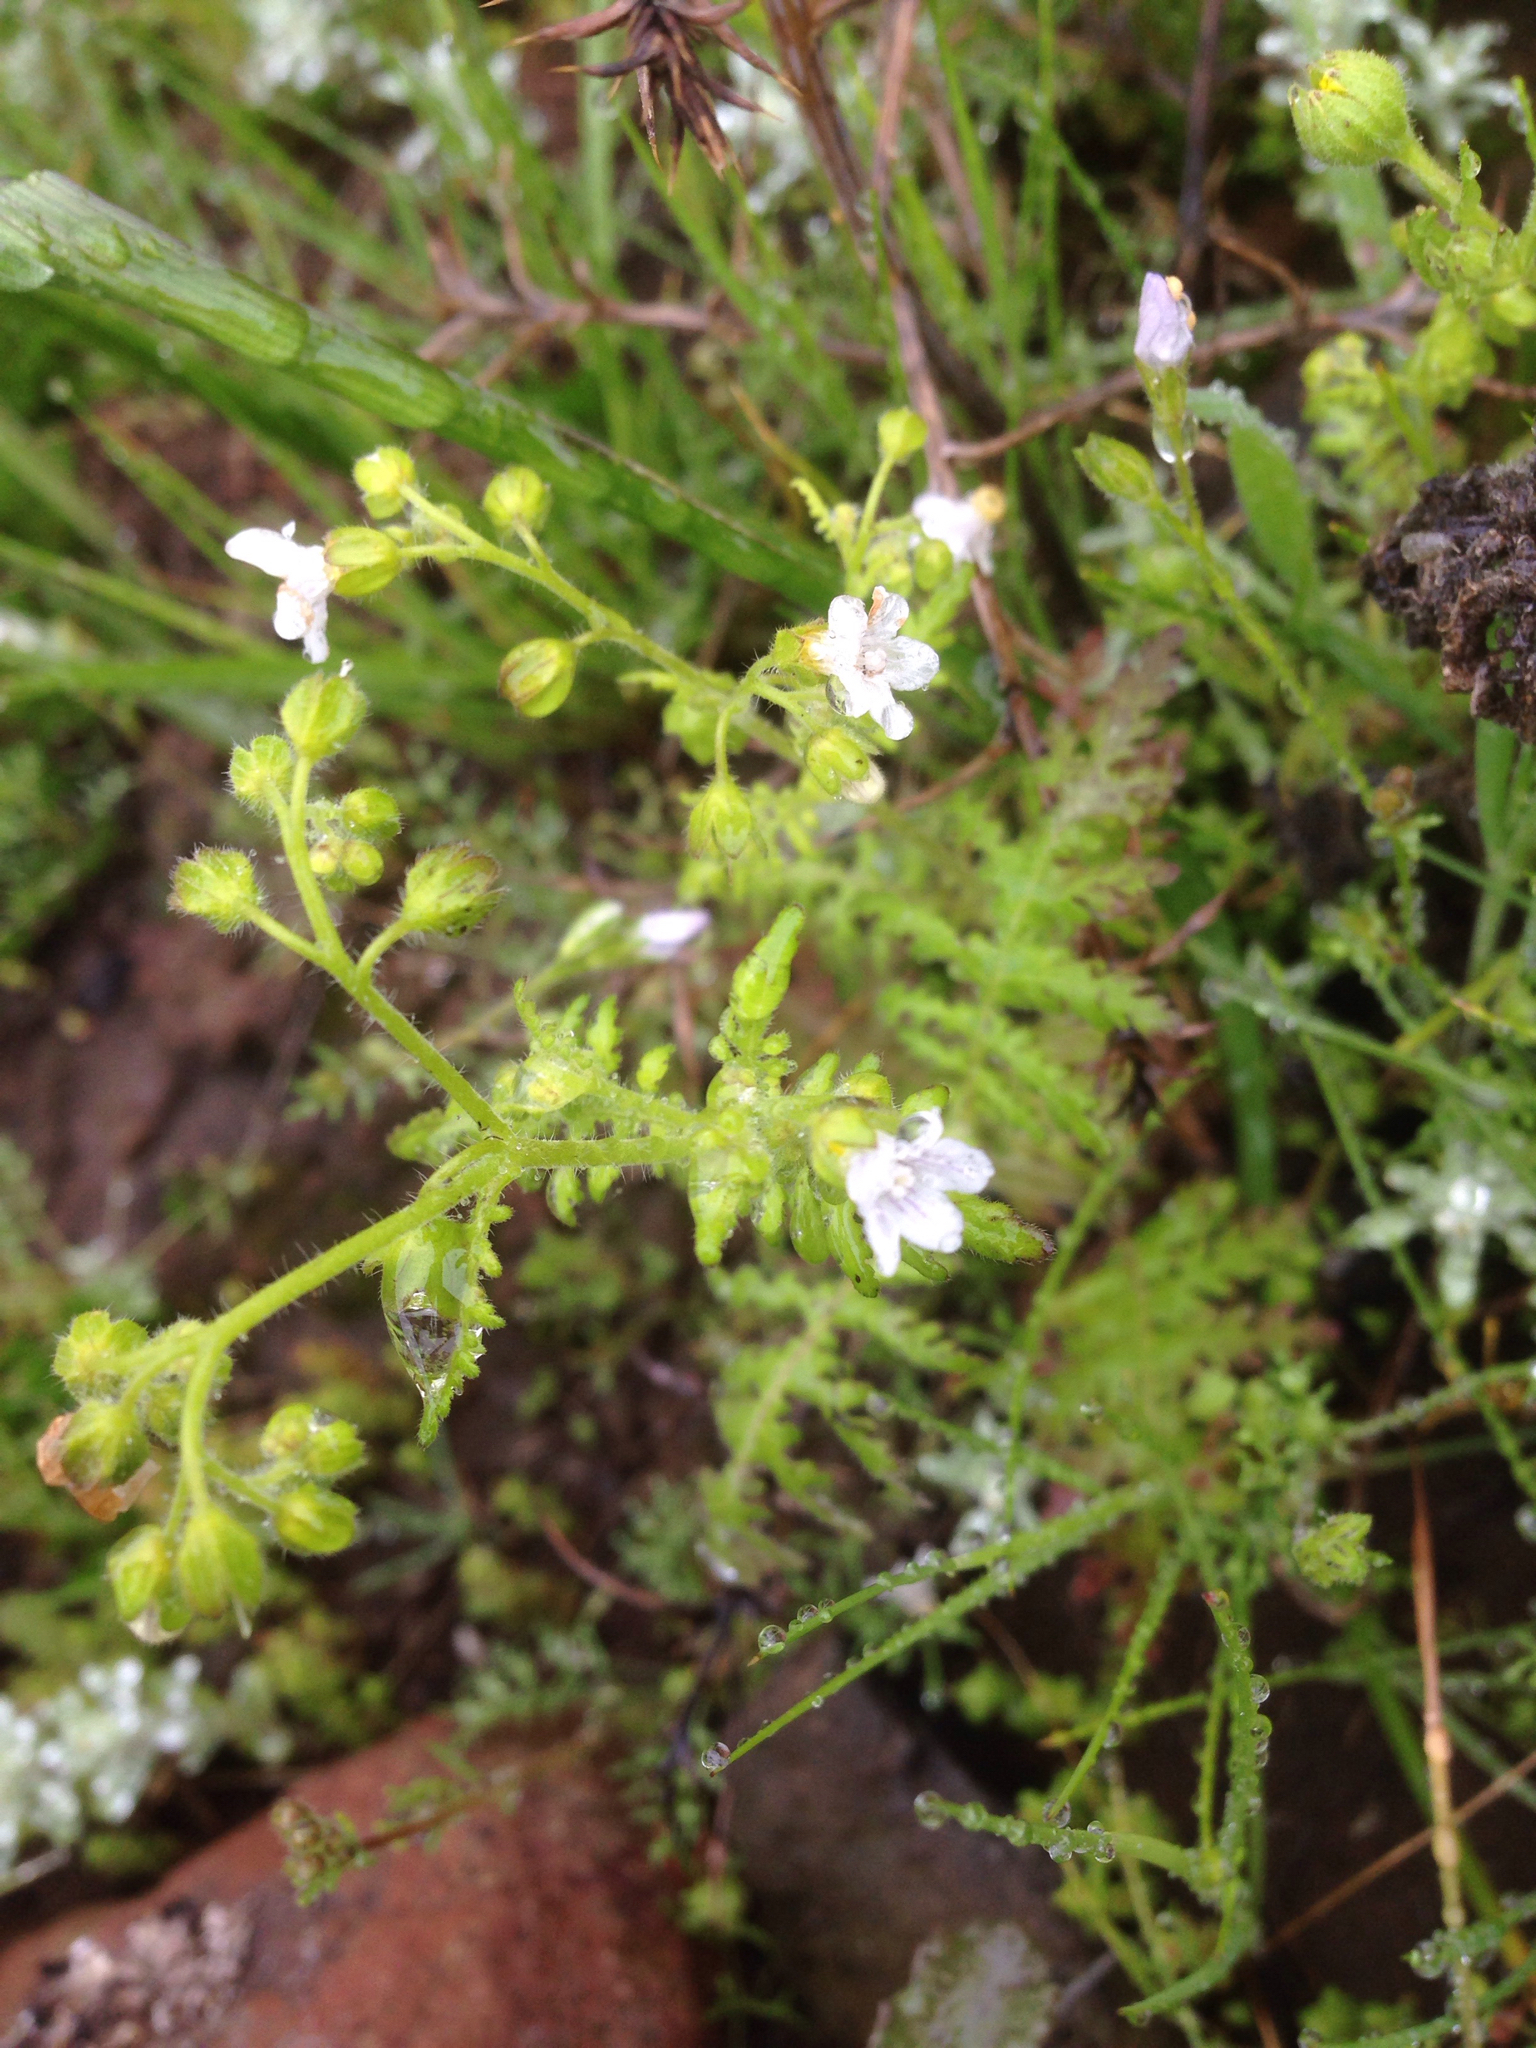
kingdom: Plantae
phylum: Tracheophyta
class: Magnoliopsida
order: Boraginales
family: Hydrophyllaceae
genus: Eucrypta
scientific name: Eucrypta chrysanthemifolia
